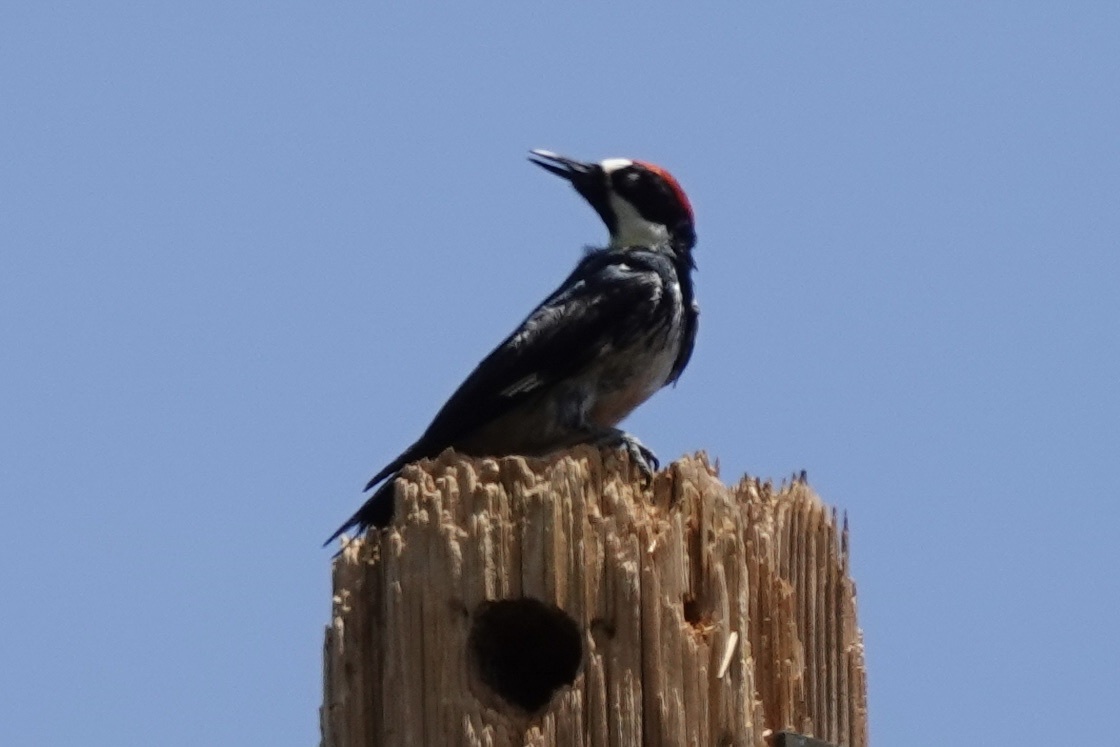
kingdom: Animalia
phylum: Chordata
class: Aves
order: Piciformes
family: Picidae
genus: Melanerpes
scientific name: Melanerpes formicivorus
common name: Acorn woodpecker
